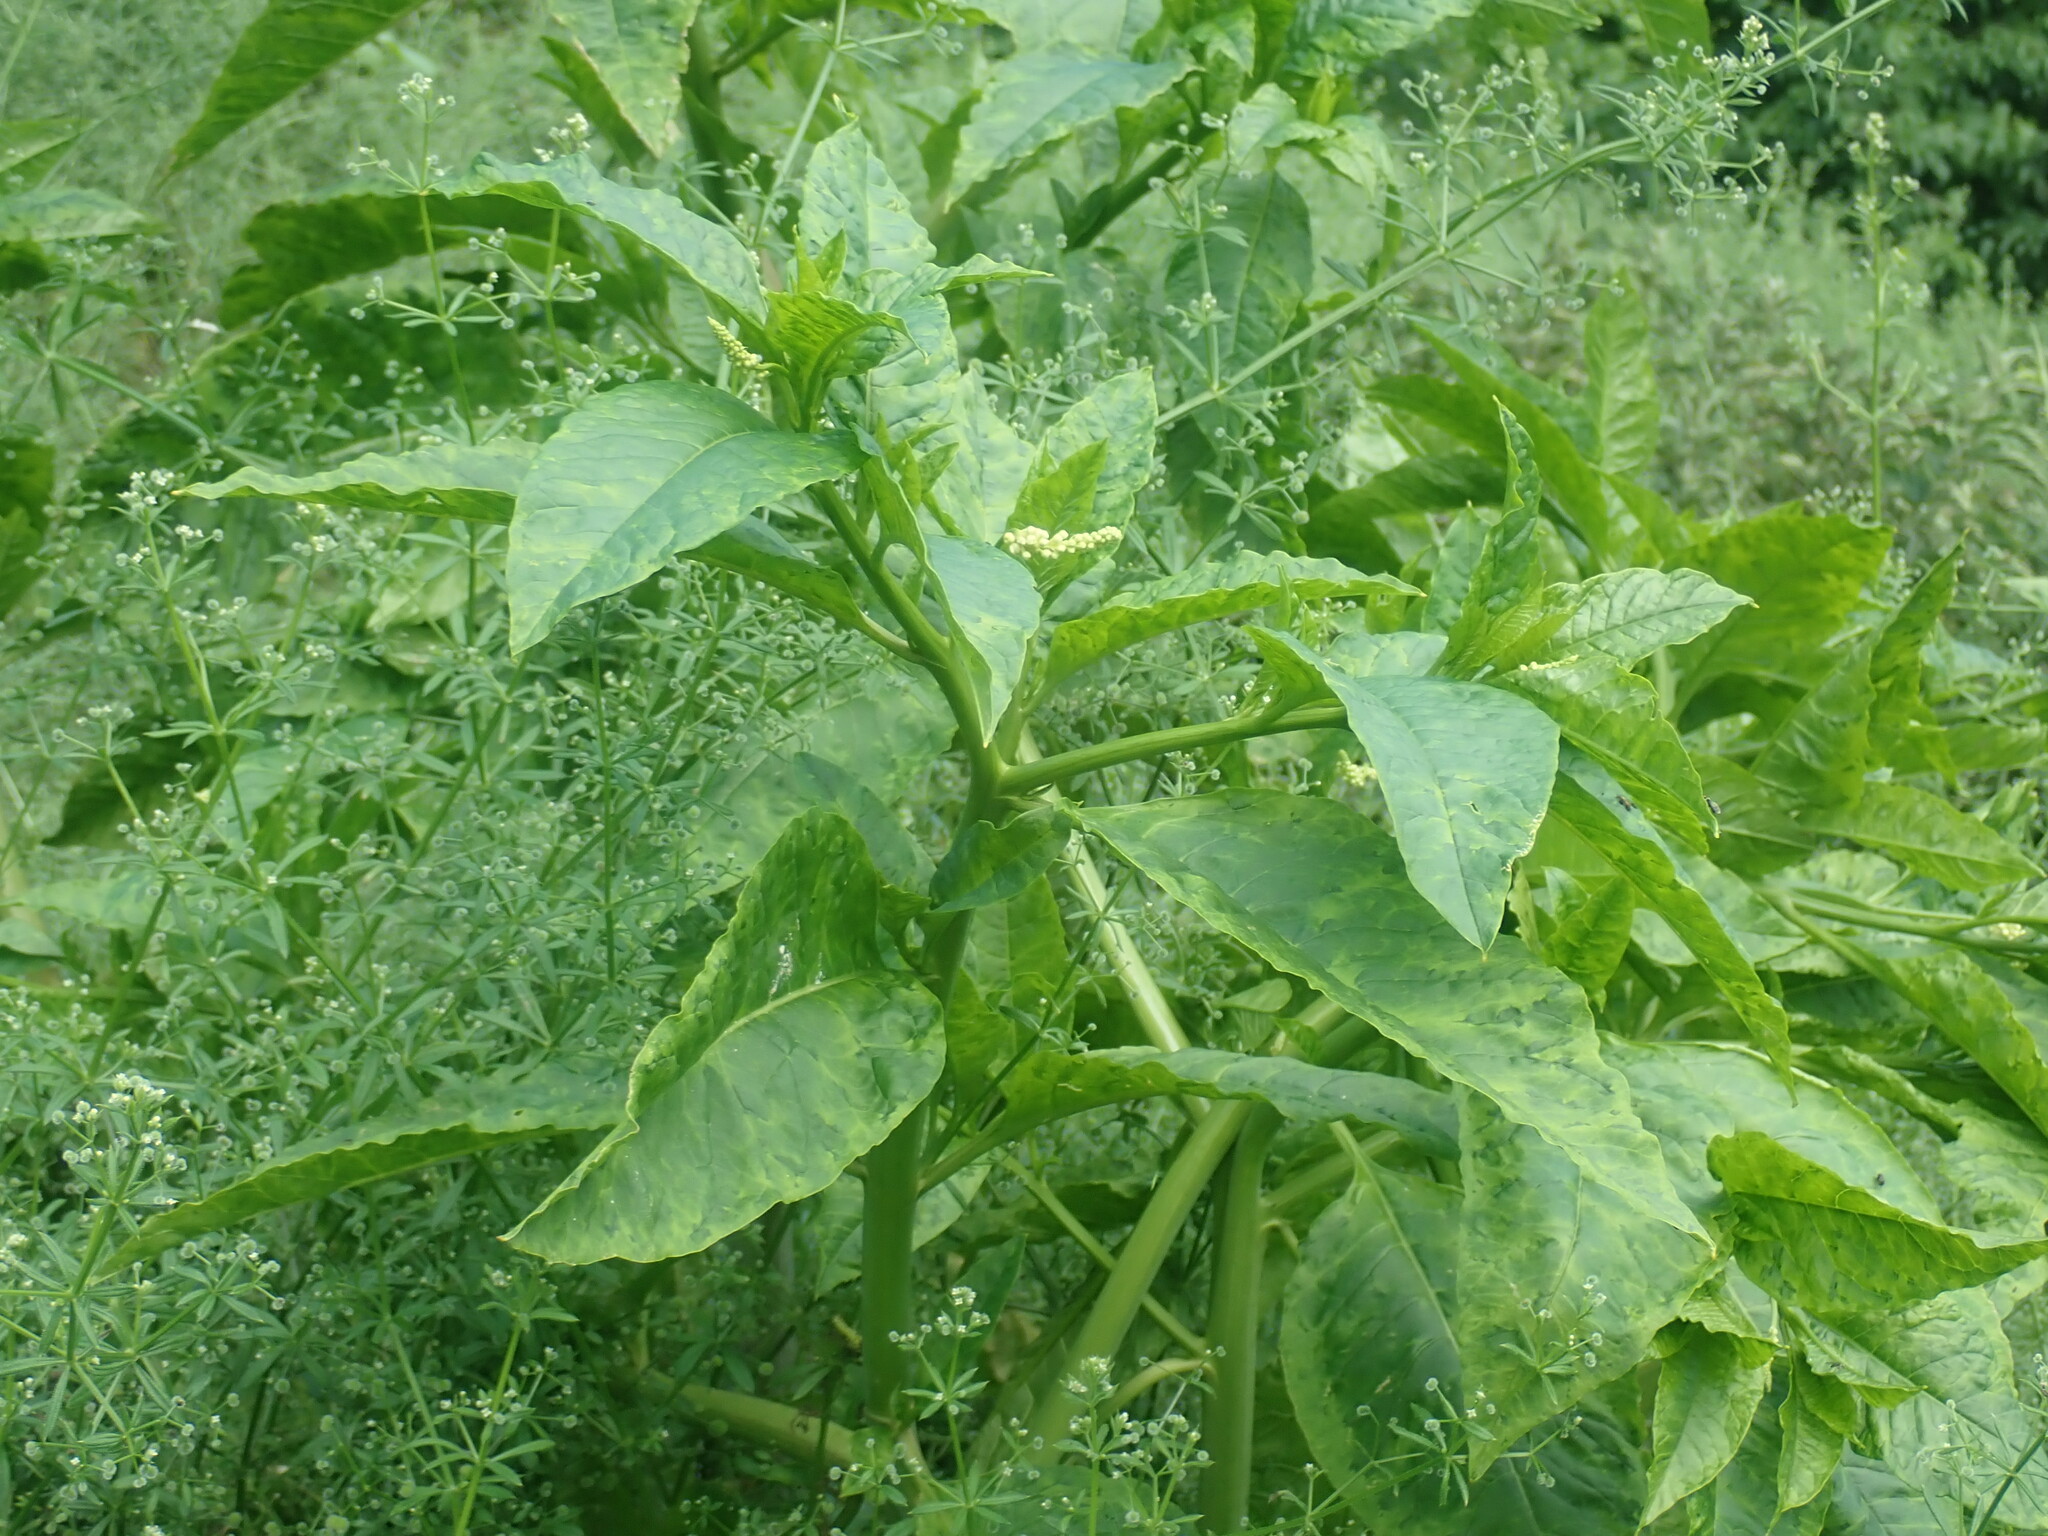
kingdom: Plantae
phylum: Tracheophyta
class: Magnoliopsida
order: Caryophyllales
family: Phytolaccaceae
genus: Phytolacca
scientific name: Phytolacca americana
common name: American pokeweed
